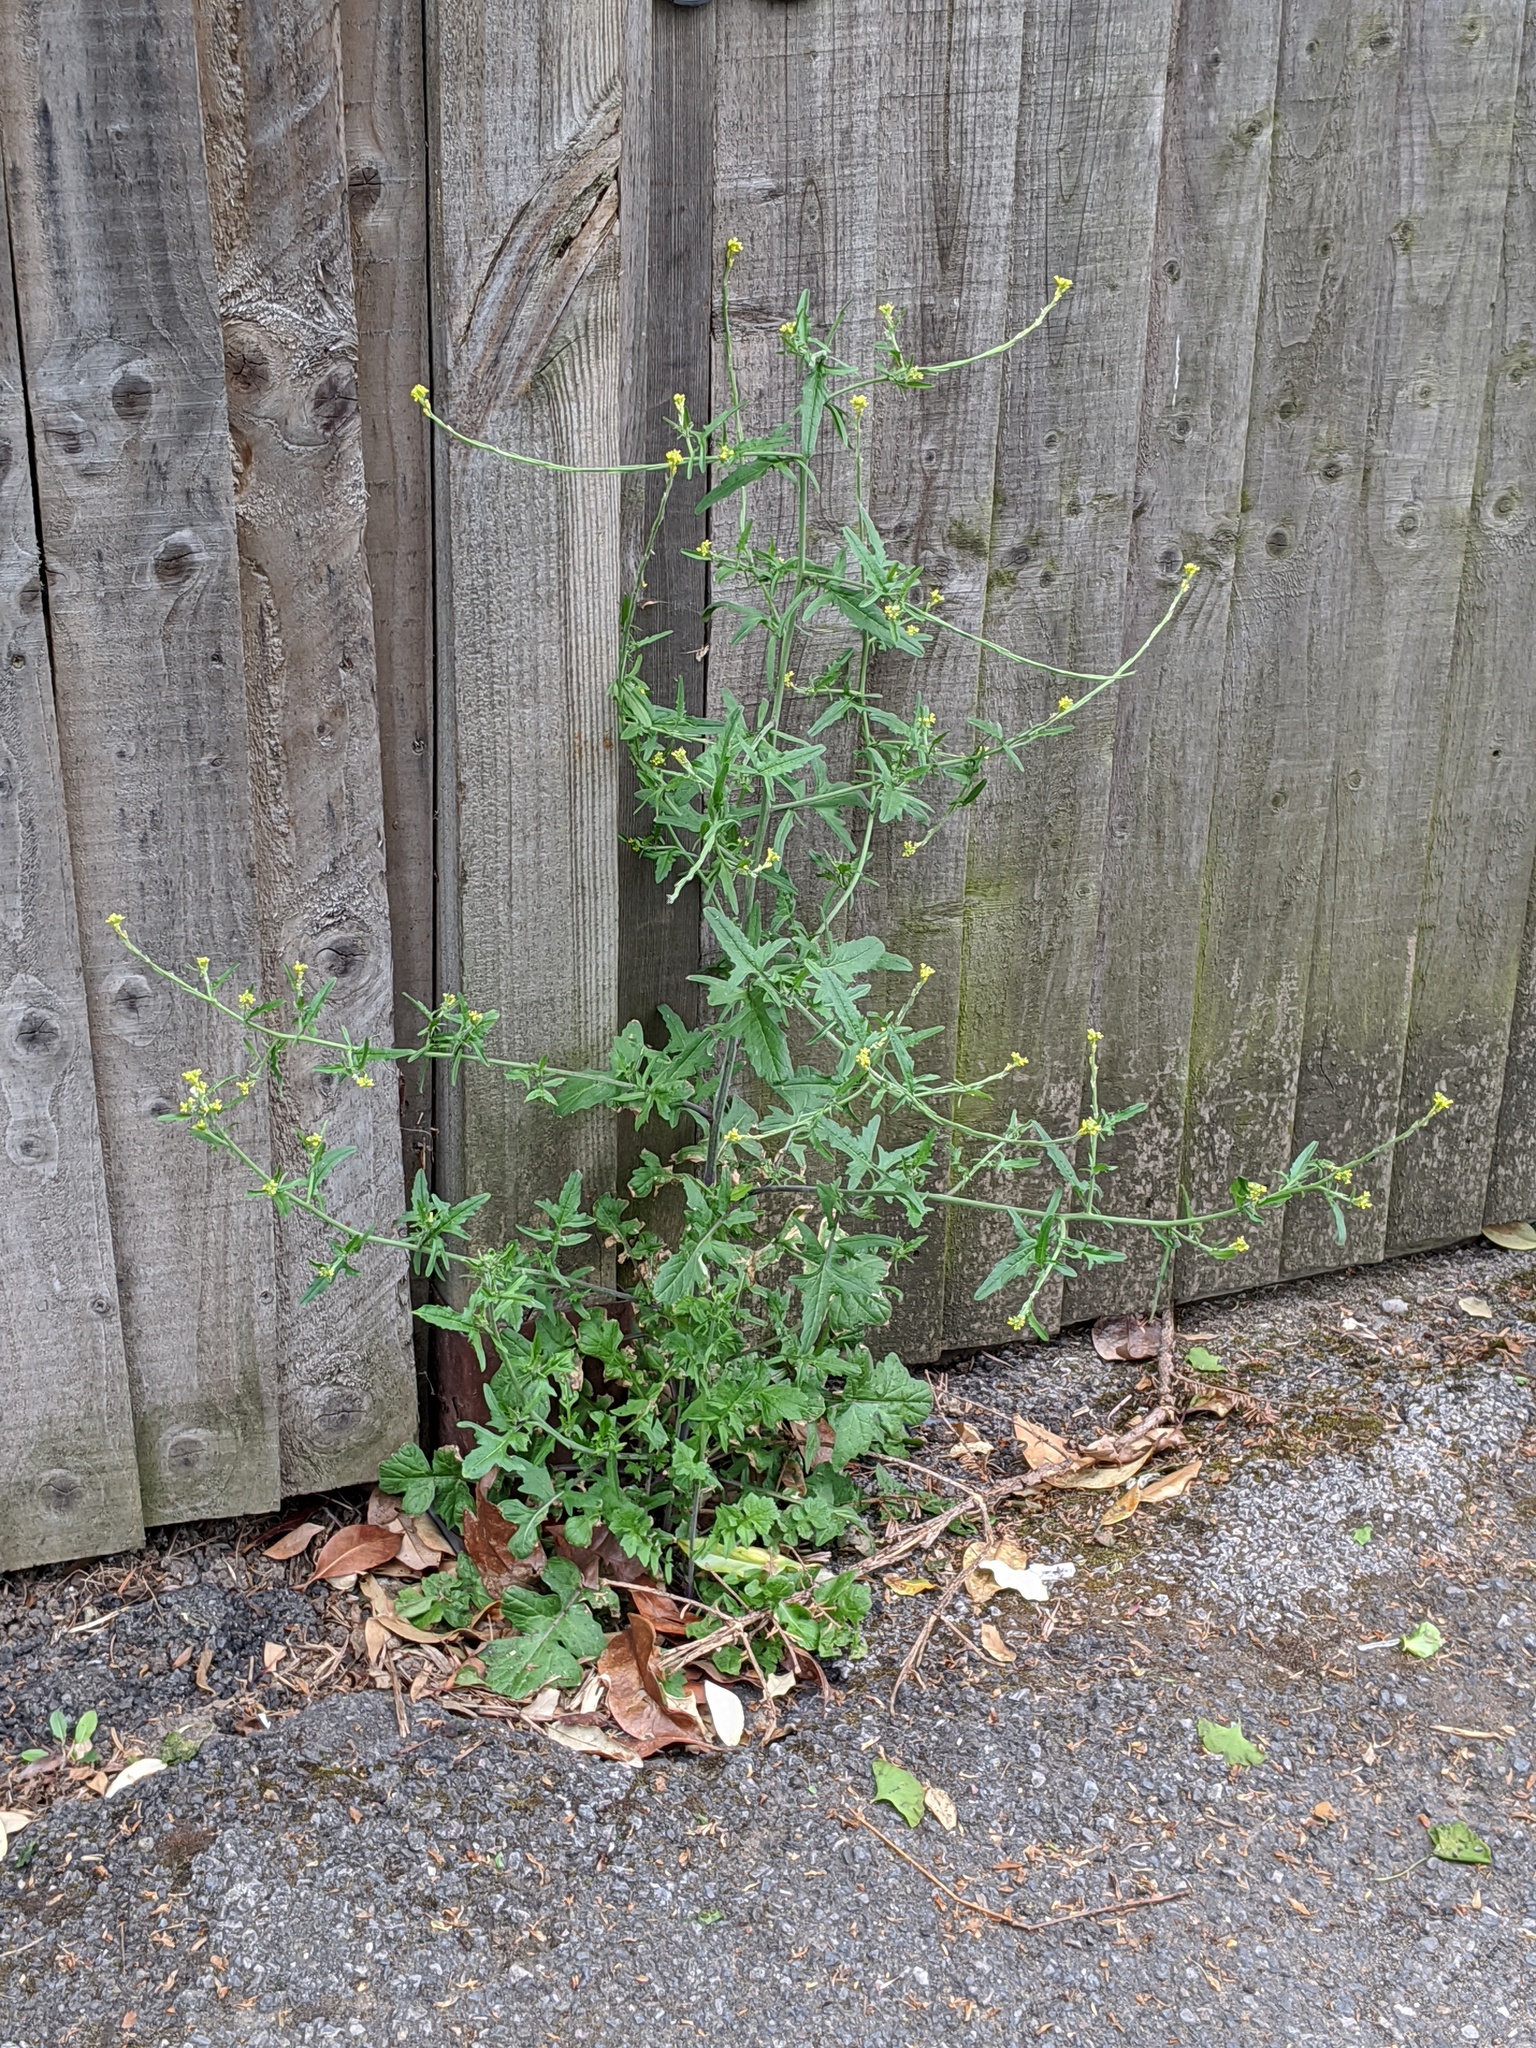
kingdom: Plantae
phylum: Tracheophyta
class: Magnoliopsida
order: Brassicales
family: Brassicaceae
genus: Sisymbrium
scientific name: Sisymbrium officinale
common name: Hedge mustard
